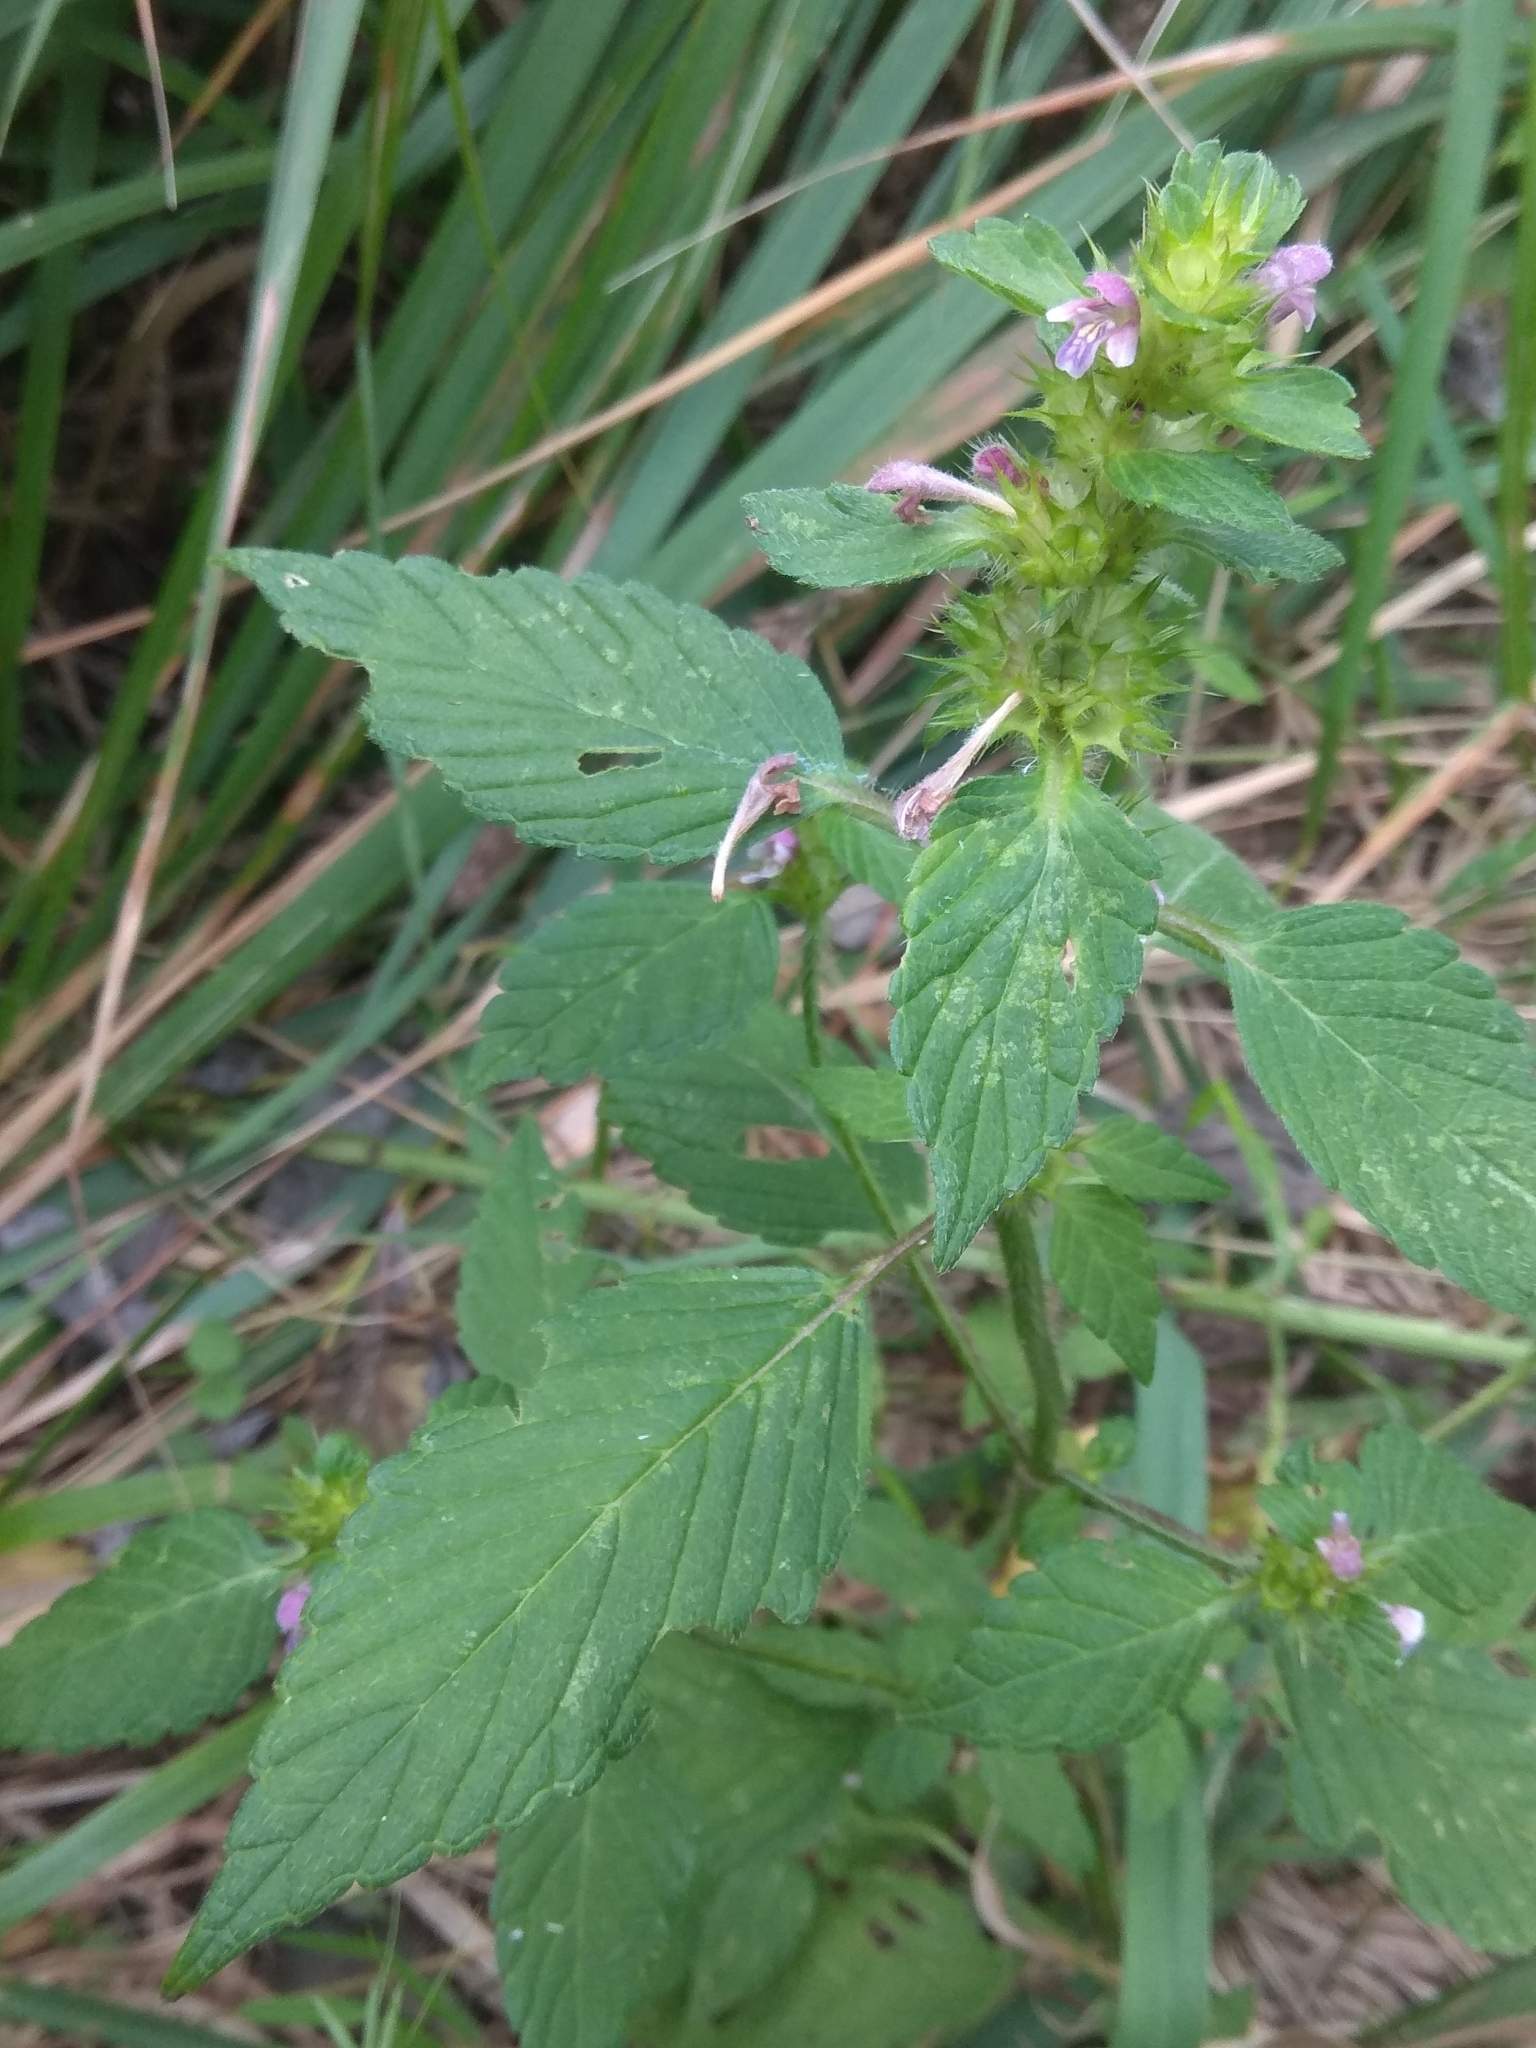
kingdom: Plantae
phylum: Tracheophyta
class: Magnoliopsida
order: Lamiales
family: Lamiaceae
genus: Galeopsis
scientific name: Galeopsis bifida
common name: Bifid hemp-nettle
